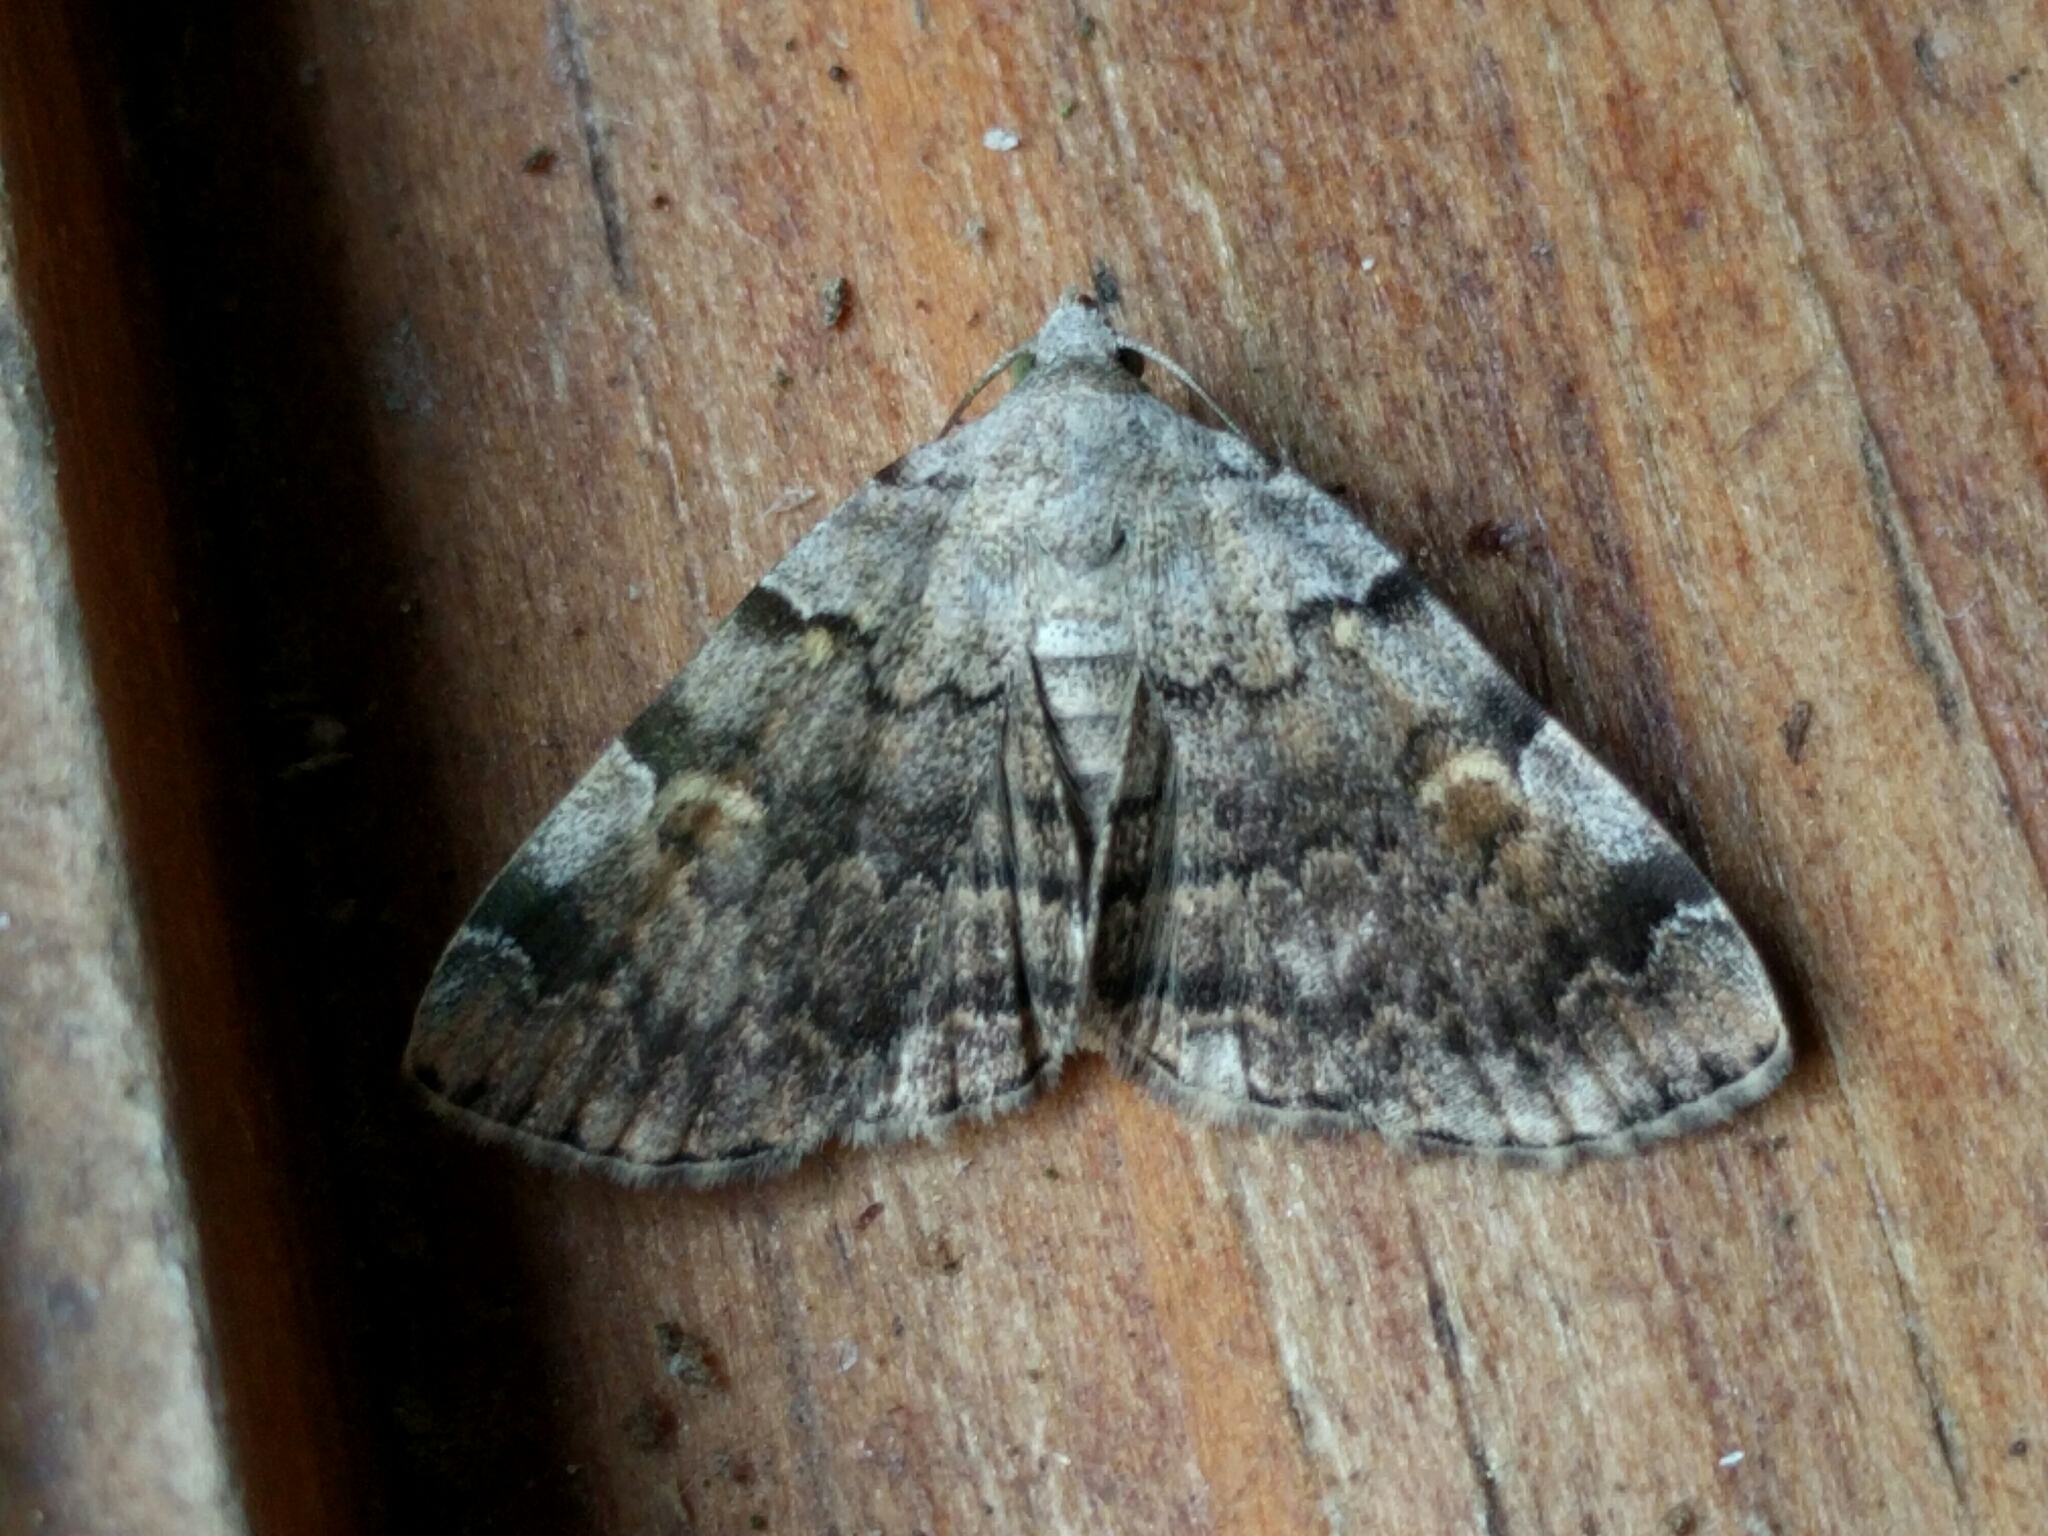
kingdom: Animalia
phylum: Arthropoda
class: Insecta
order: Lepidoptera
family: Erebidae
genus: Idia
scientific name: Idia americalis
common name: American idia moth
